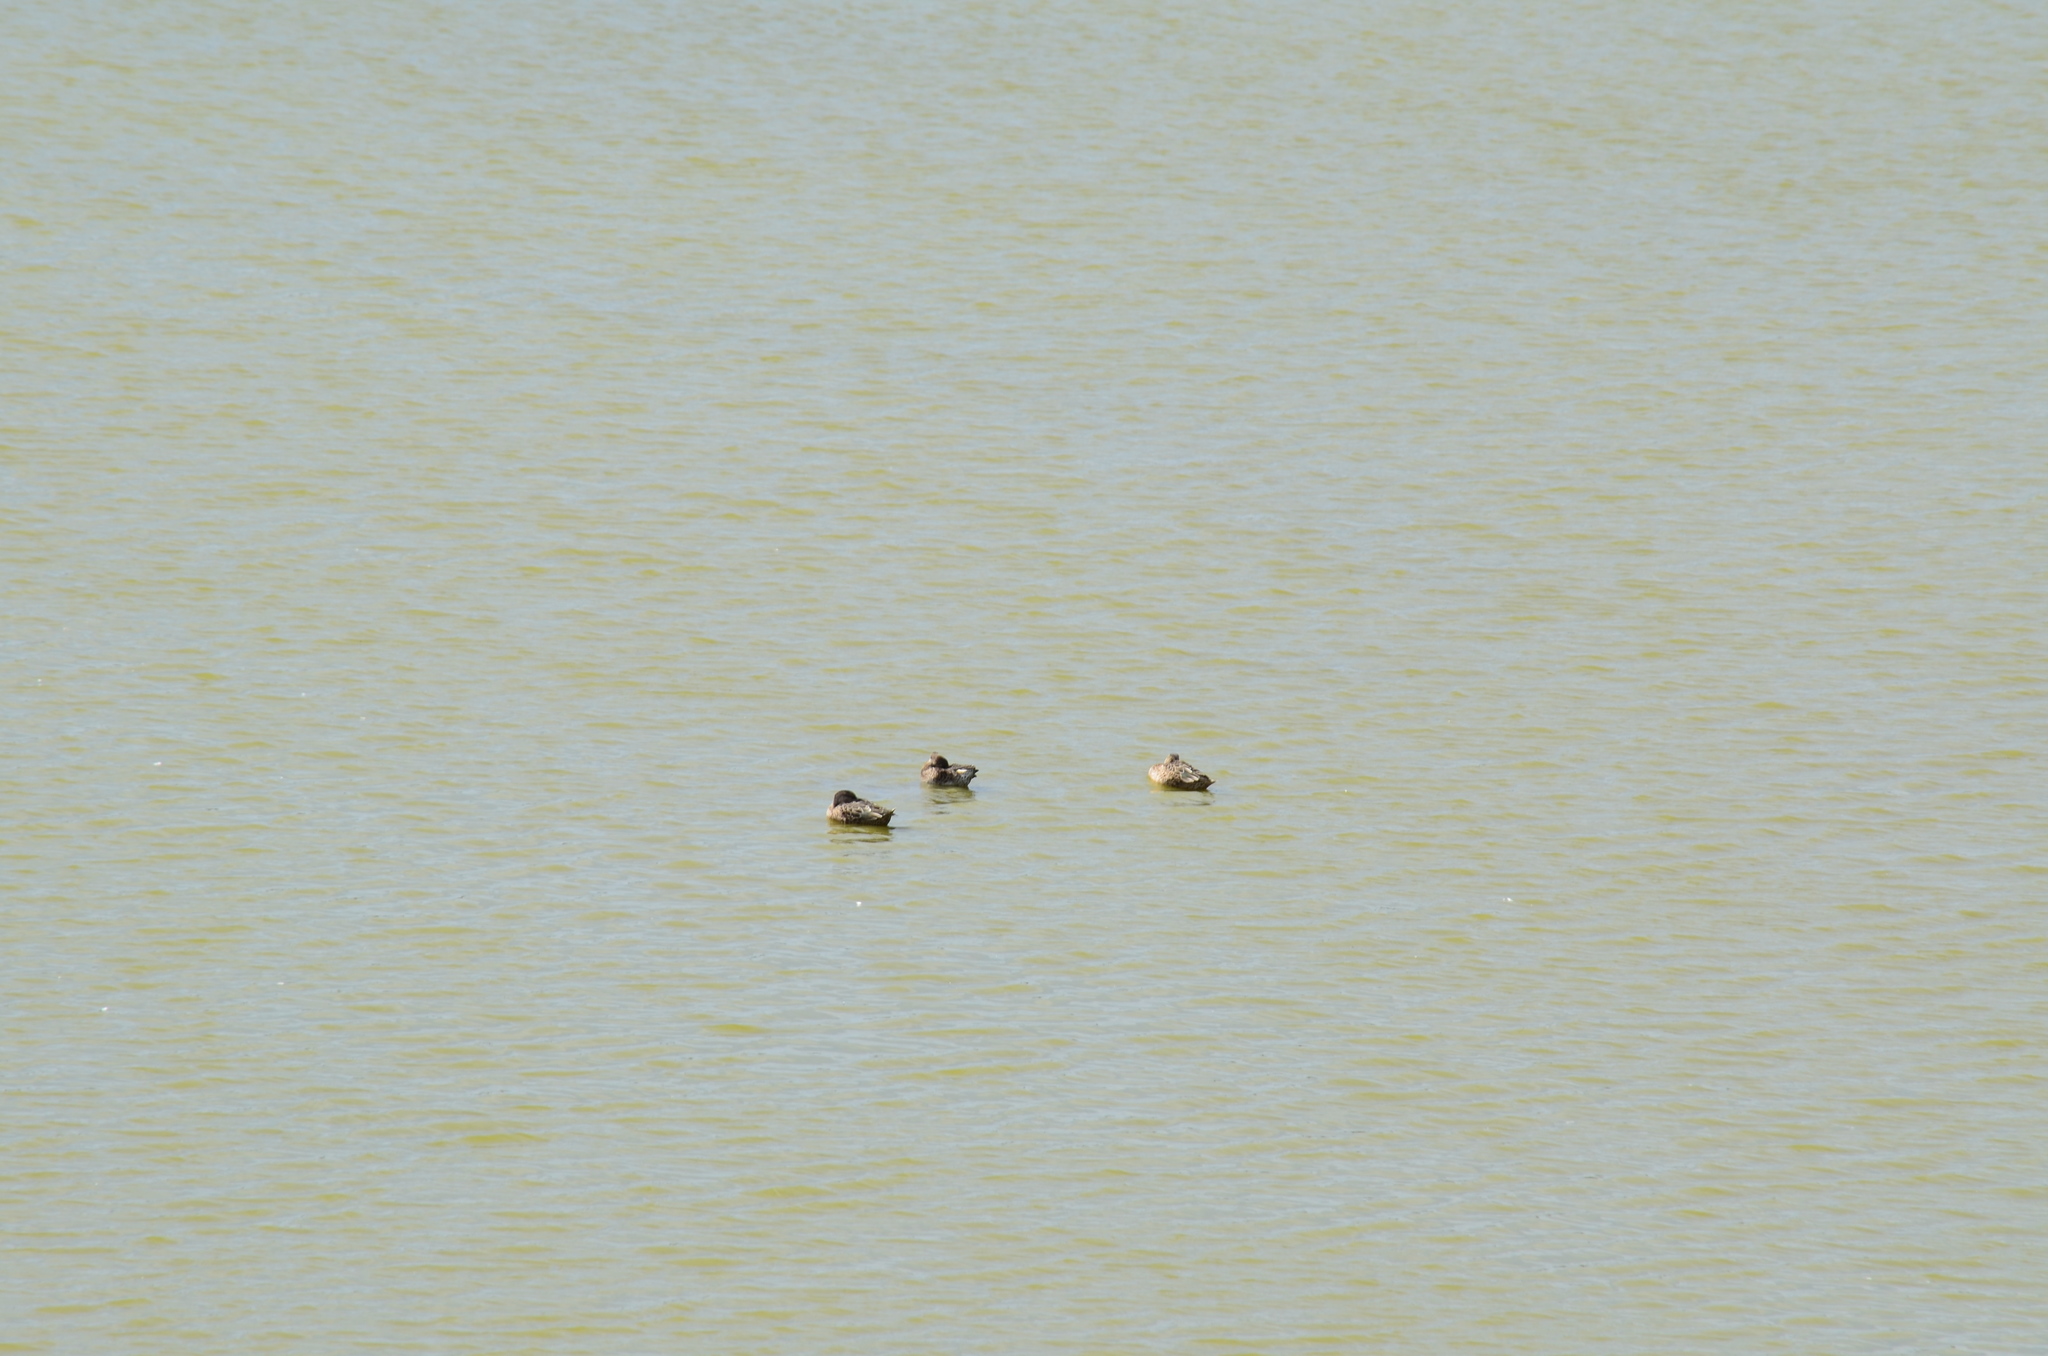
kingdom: Animalia
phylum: Chordata
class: Aves
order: Anseriformes
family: Anatidae
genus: Anas
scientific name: Anas crecca
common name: Eurasian teal
